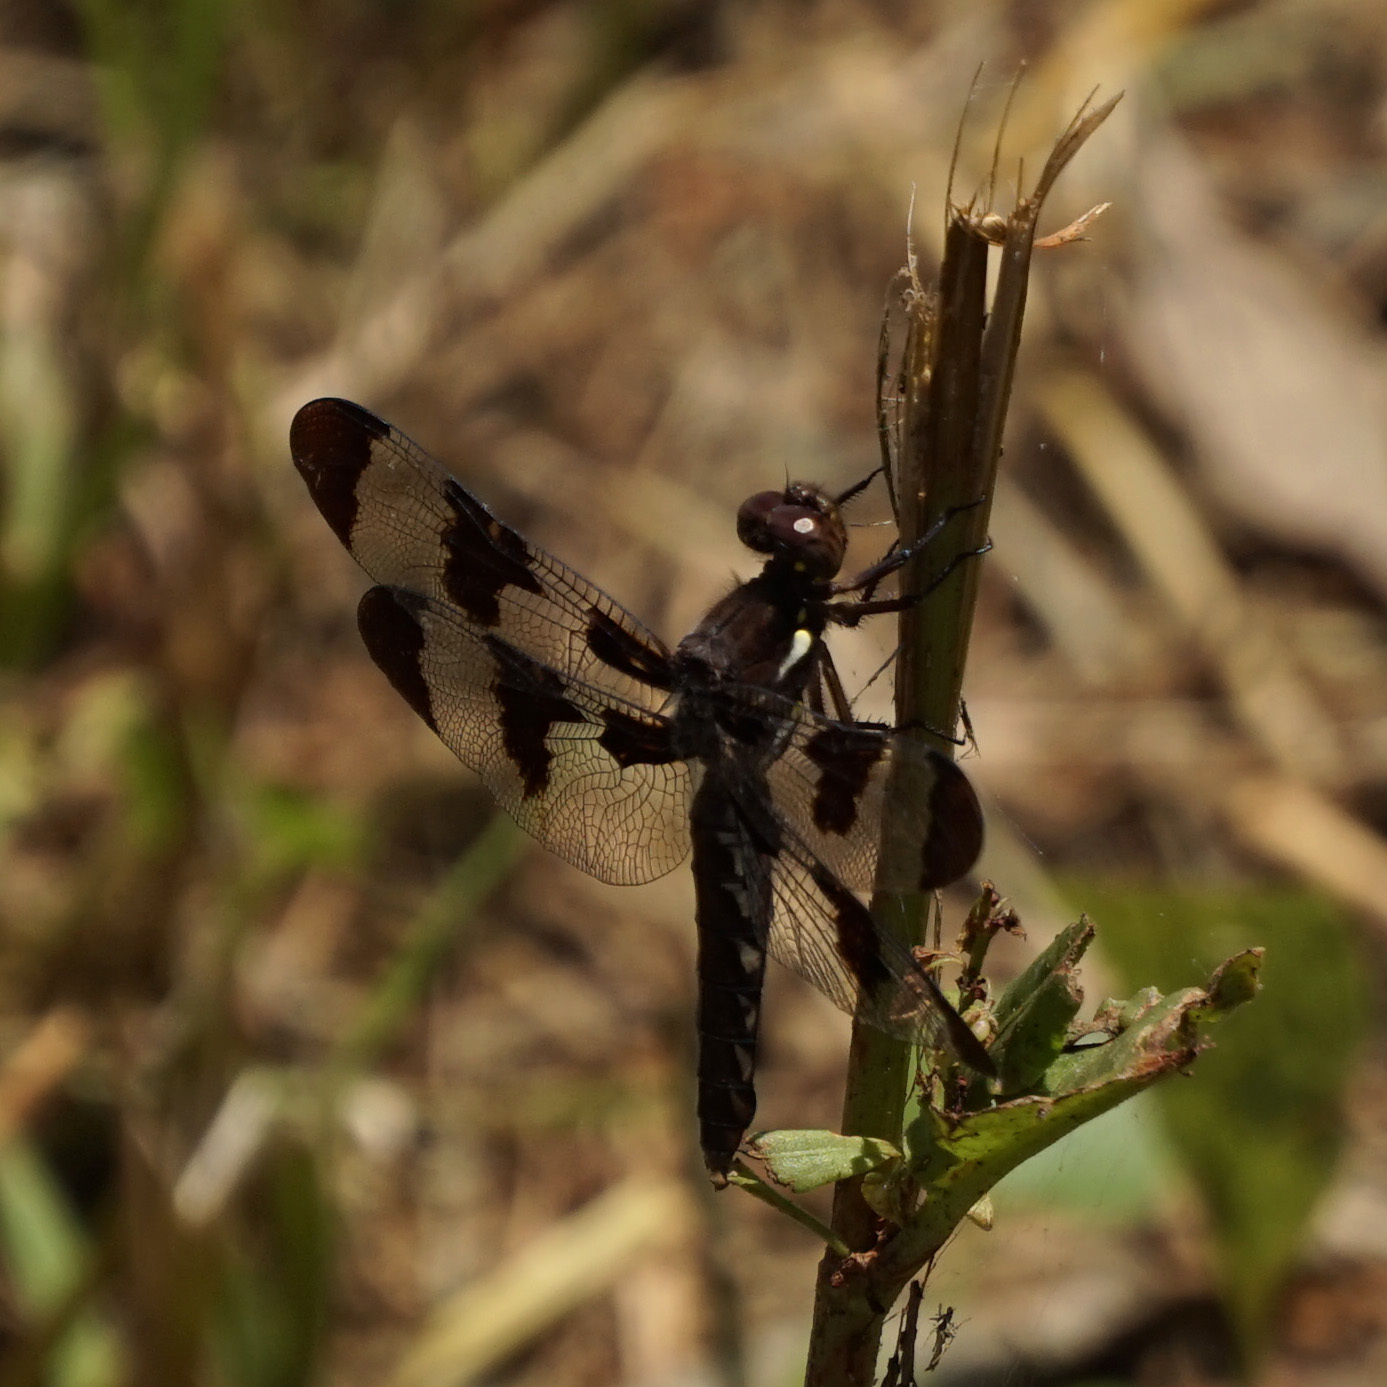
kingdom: Animalia
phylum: Arthropoda
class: Insecta
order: Odonata
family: Libellulidae
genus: Plathemis
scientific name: Plathemis lydia
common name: Common whitetail
